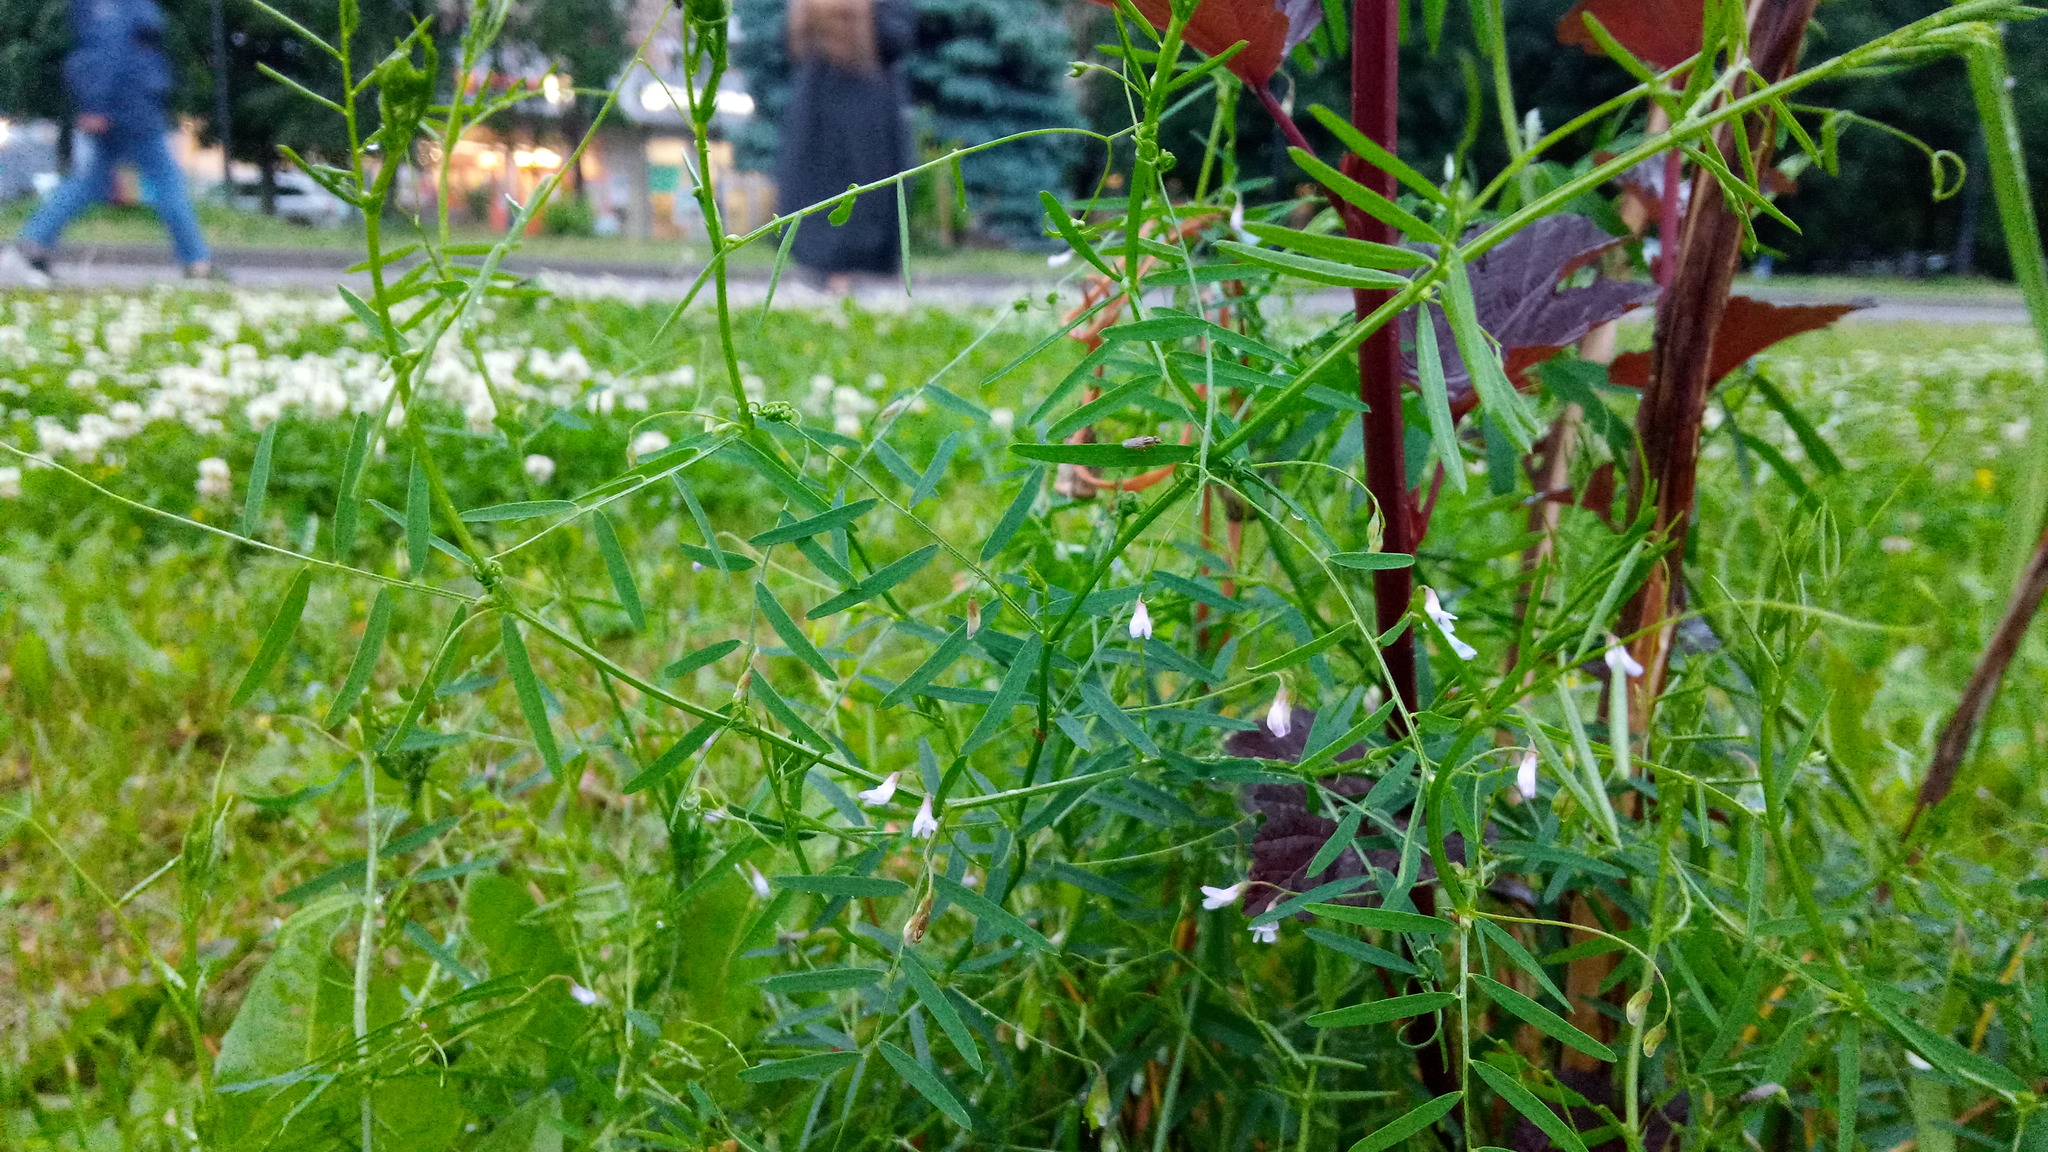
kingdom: Plantae
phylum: Tracheophyta
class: Magnoliopsida
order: Fabales
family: Fabaceae
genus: Vicia
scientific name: Vicia tetrasperma
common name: Smooth tare
